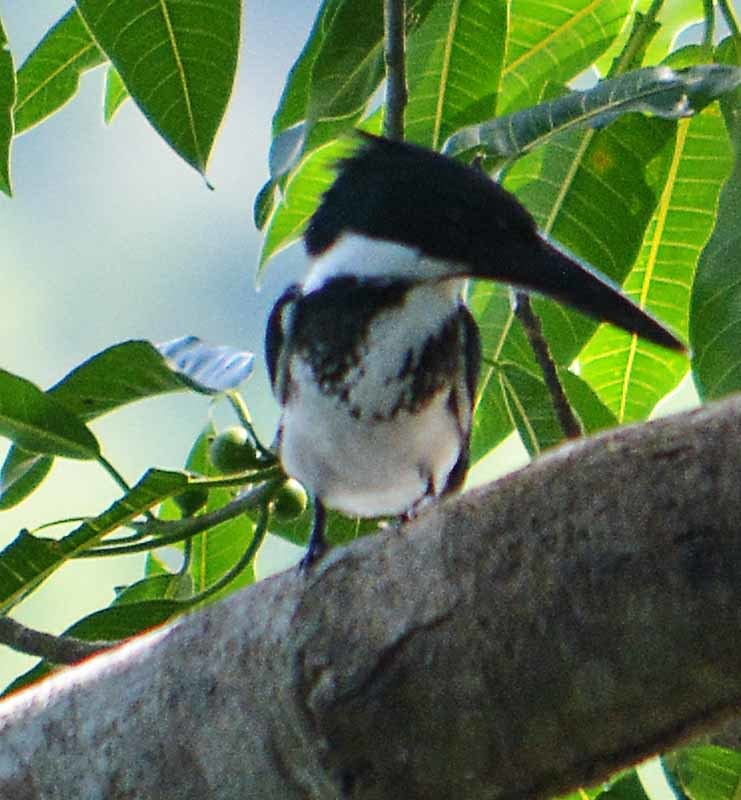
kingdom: Animalia
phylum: Chordata
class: Aves
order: Coraciiformes
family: Alcedinidae
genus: Chloroceryle
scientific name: Chloroceryle amazona
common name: Amazon kingfisher
